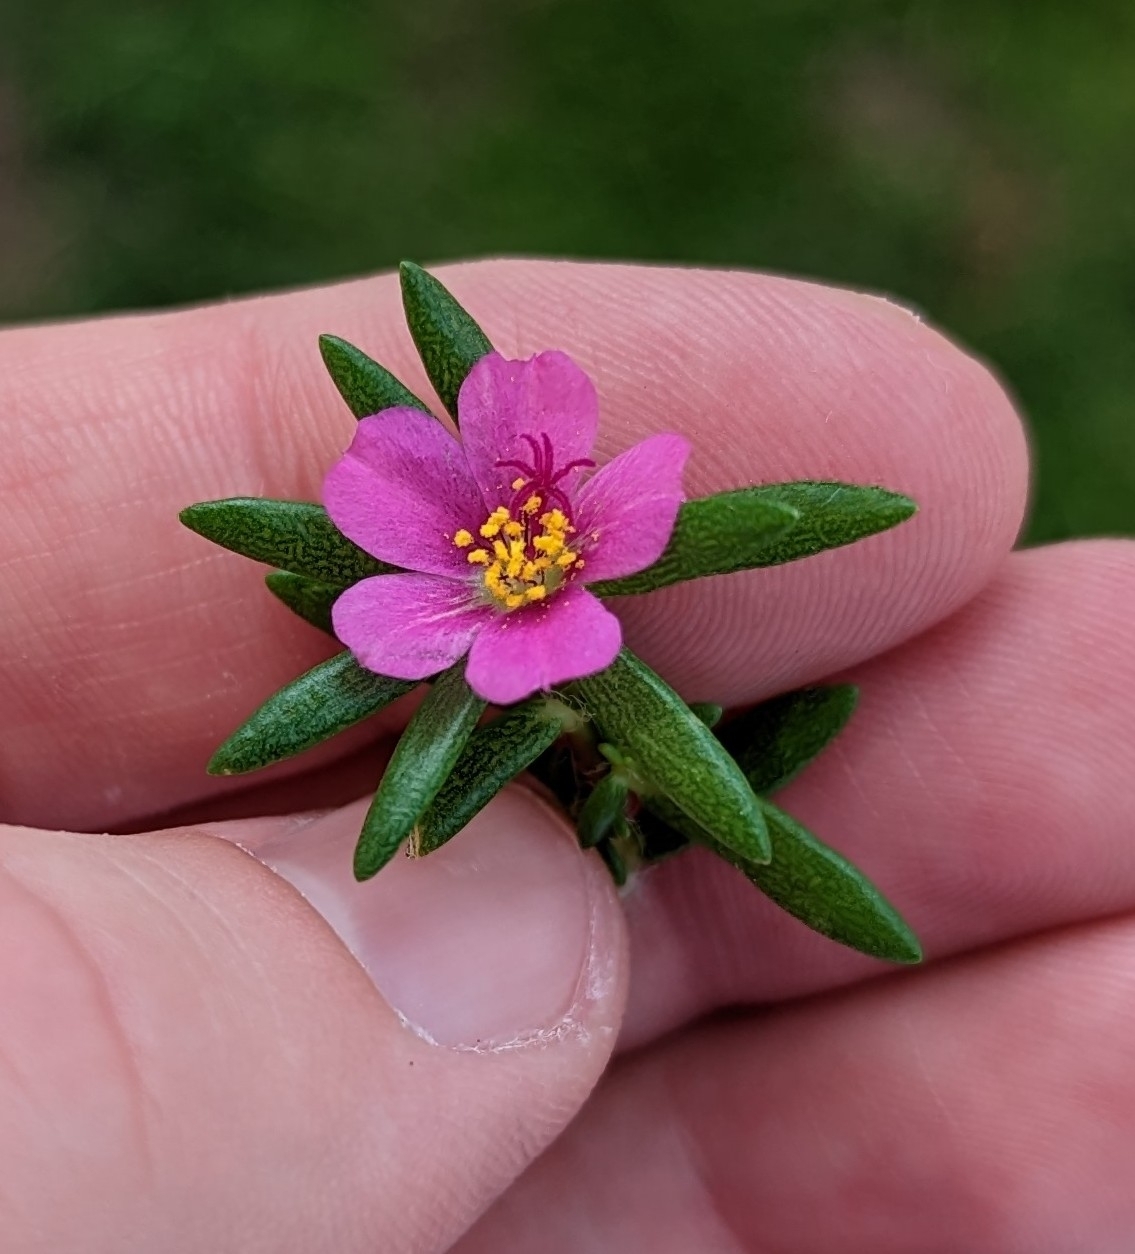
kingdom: Plantae
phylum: Tracheophyta
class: Magnoliopsida
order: Caryophyllales
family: Portulacaceae
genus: Portulaca
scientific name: Portulaca pilosa
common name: Kiss me quick
